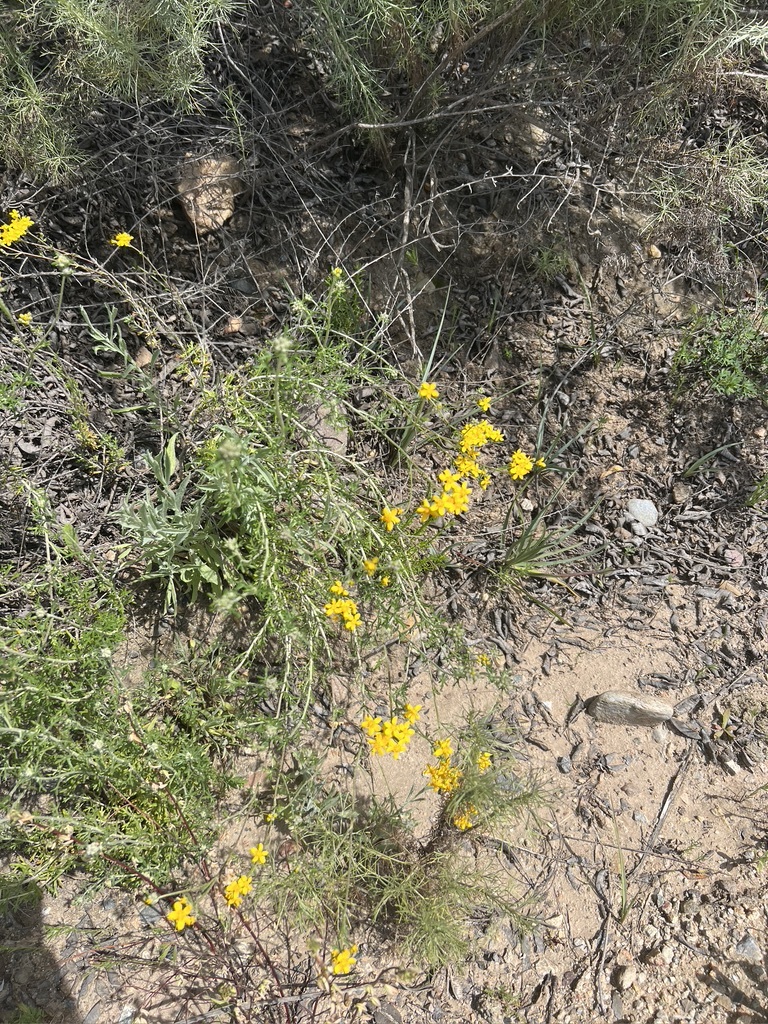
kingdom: Plantae
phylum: Tracheophyta
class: Magnoliopsida
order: Asterales
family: Asteraceae
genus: Eriophyllum
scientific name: Eriophyllum confertiflorum
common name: Golden-yarrow
